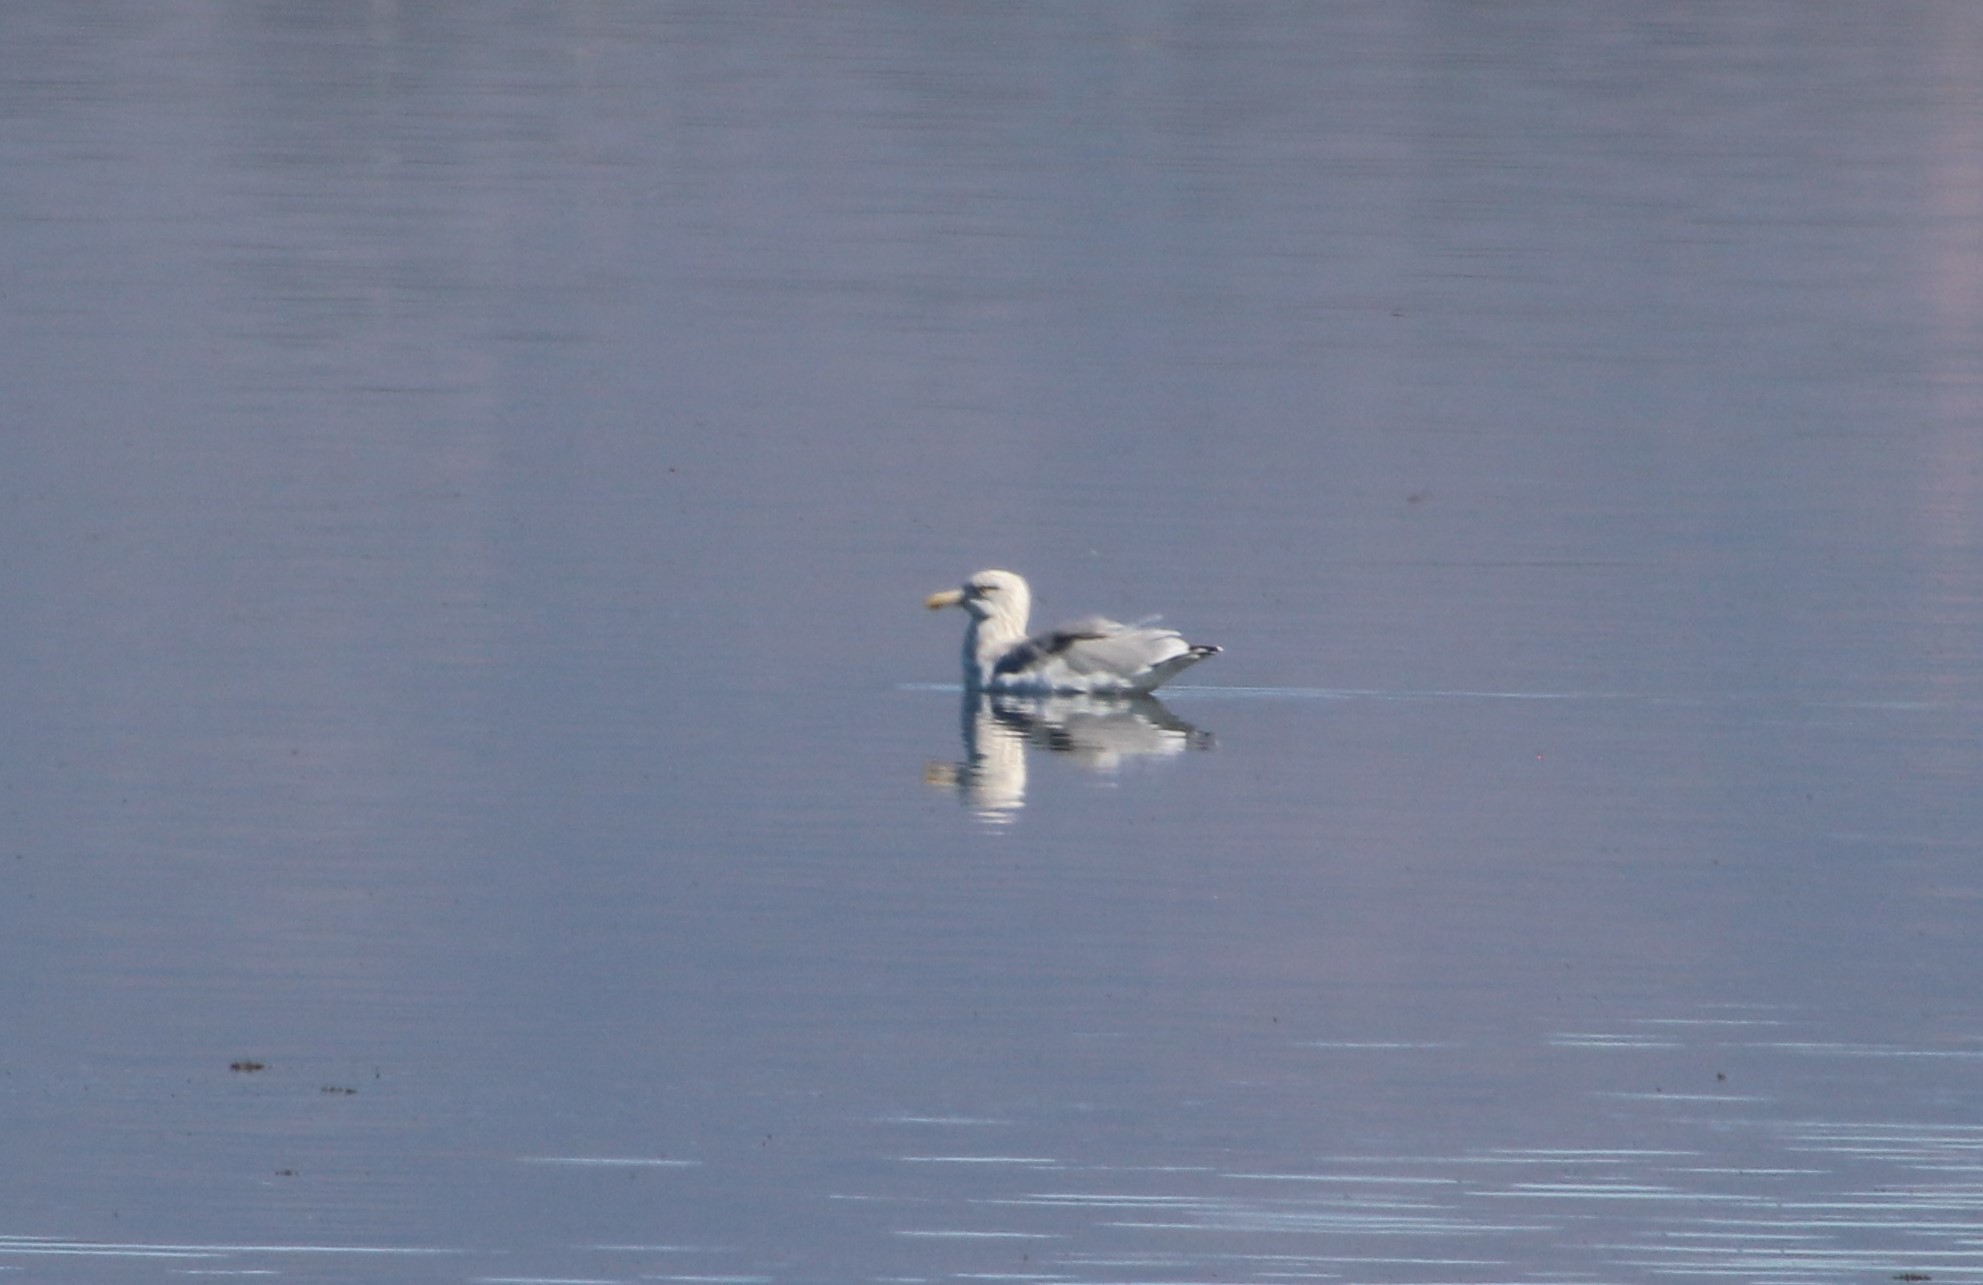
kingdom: Animalia
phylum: Chordata
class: Aves
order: Charadriiformes
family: Laridae
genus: Larus
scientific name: Larus argentatus
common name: Herring gull
